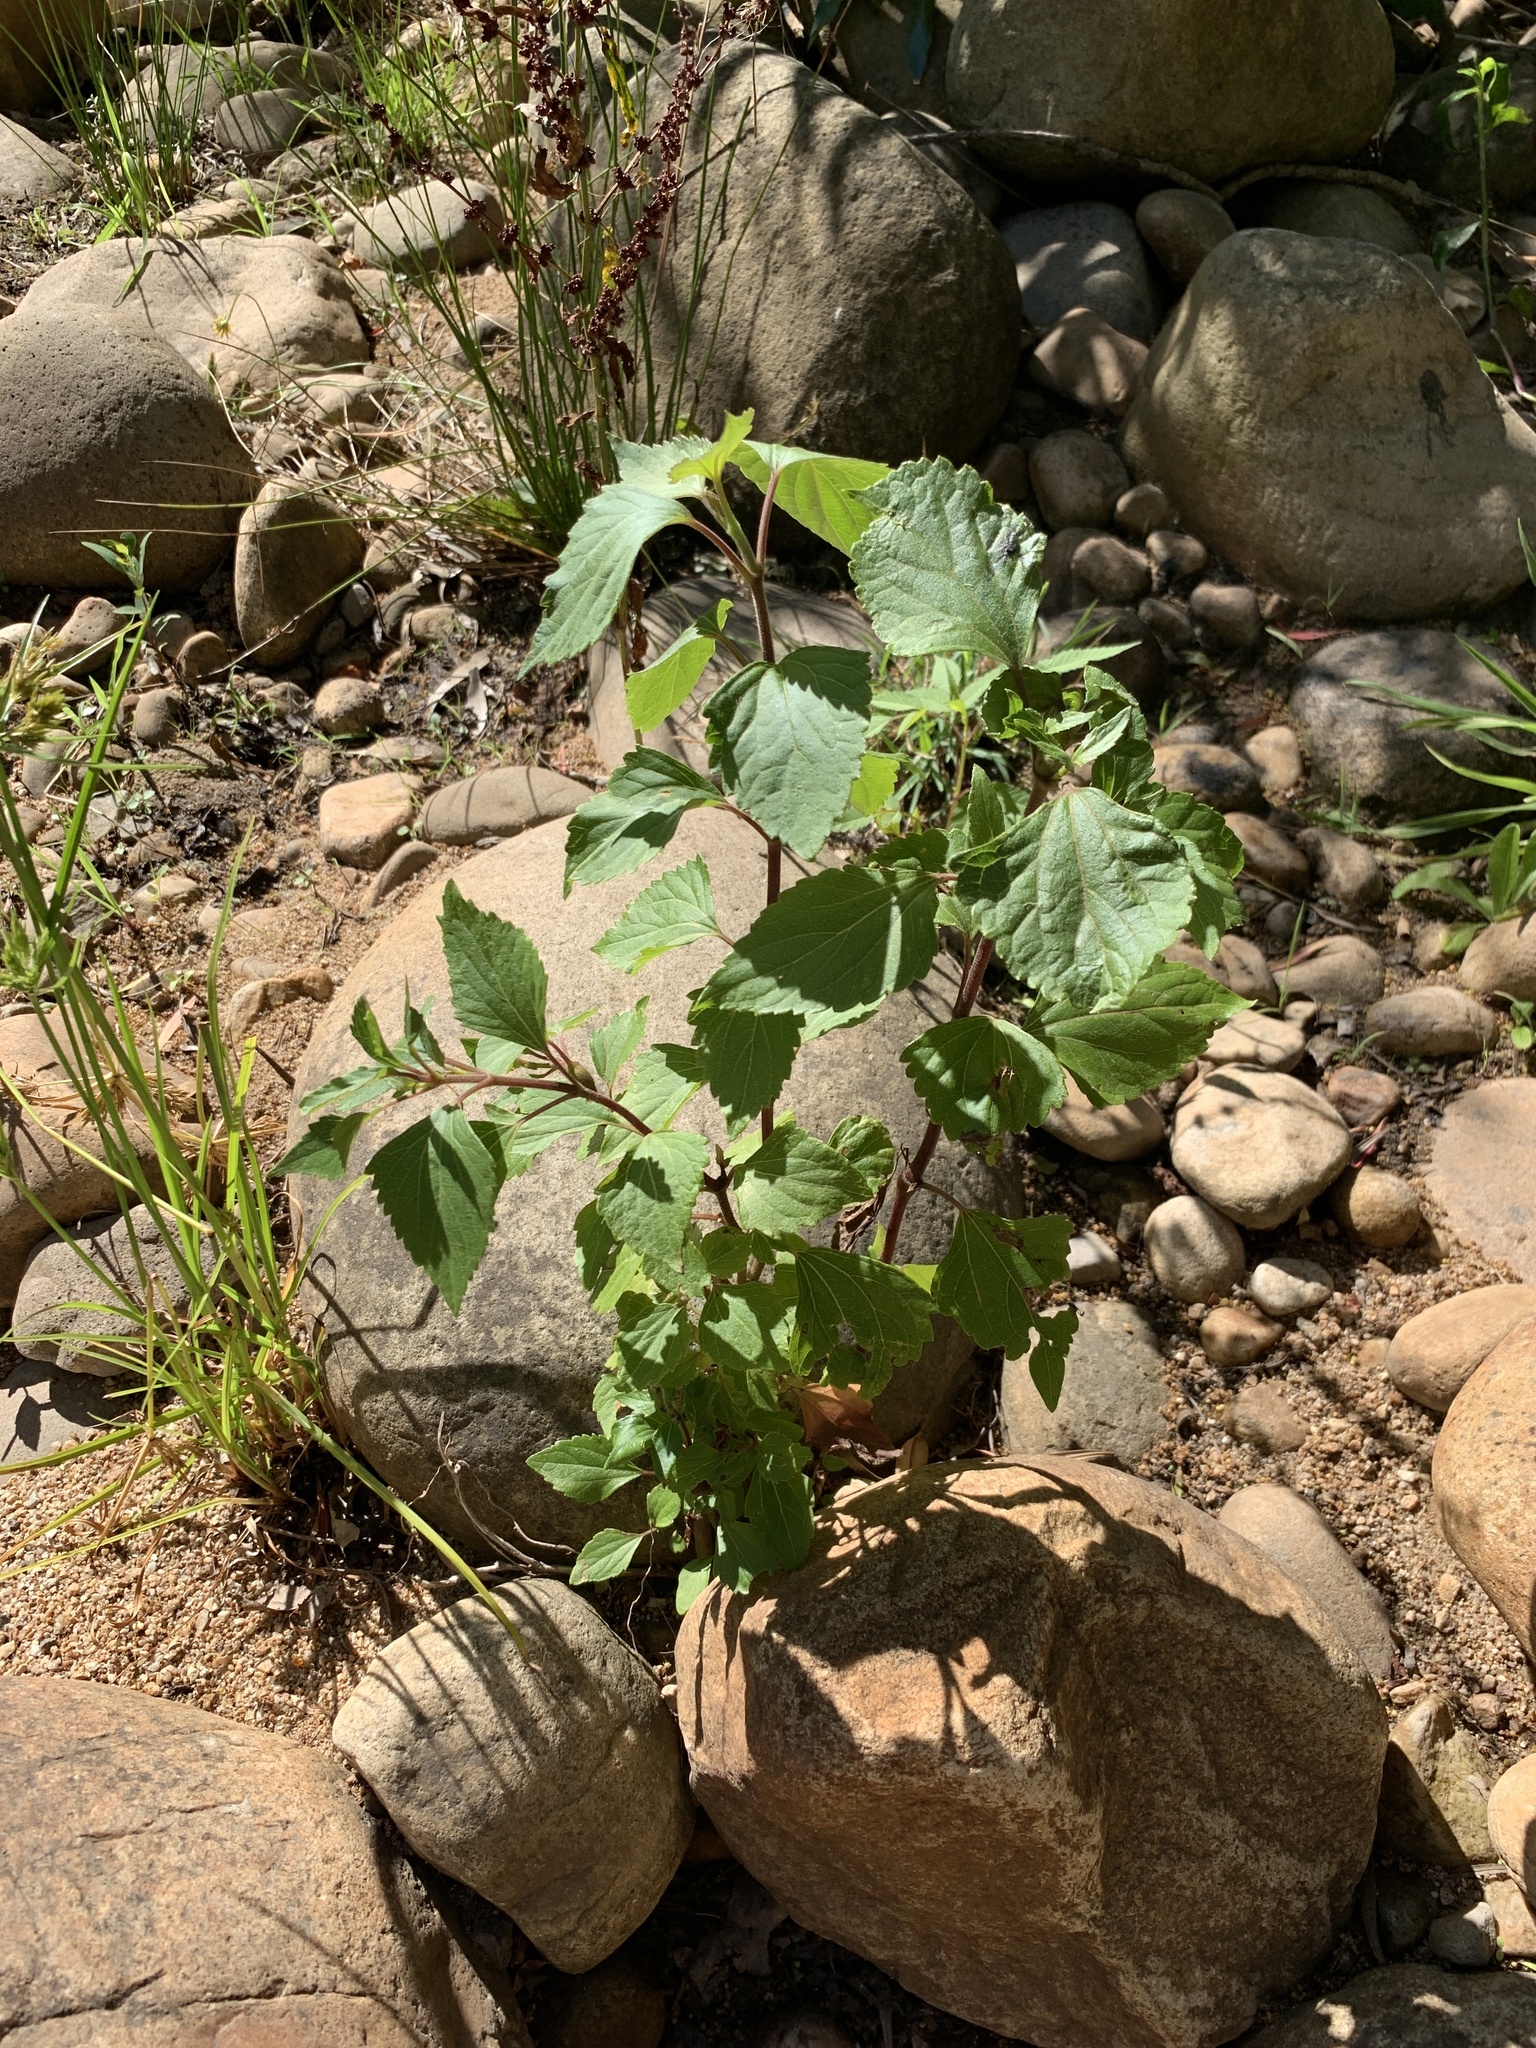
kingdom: Plantae
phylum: Tracheophyta
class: Magnoliopsida
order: Asterales
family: Asteraceae
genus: Ageratina
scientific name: Ageratina adenophora
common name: Sticky snakeroot
